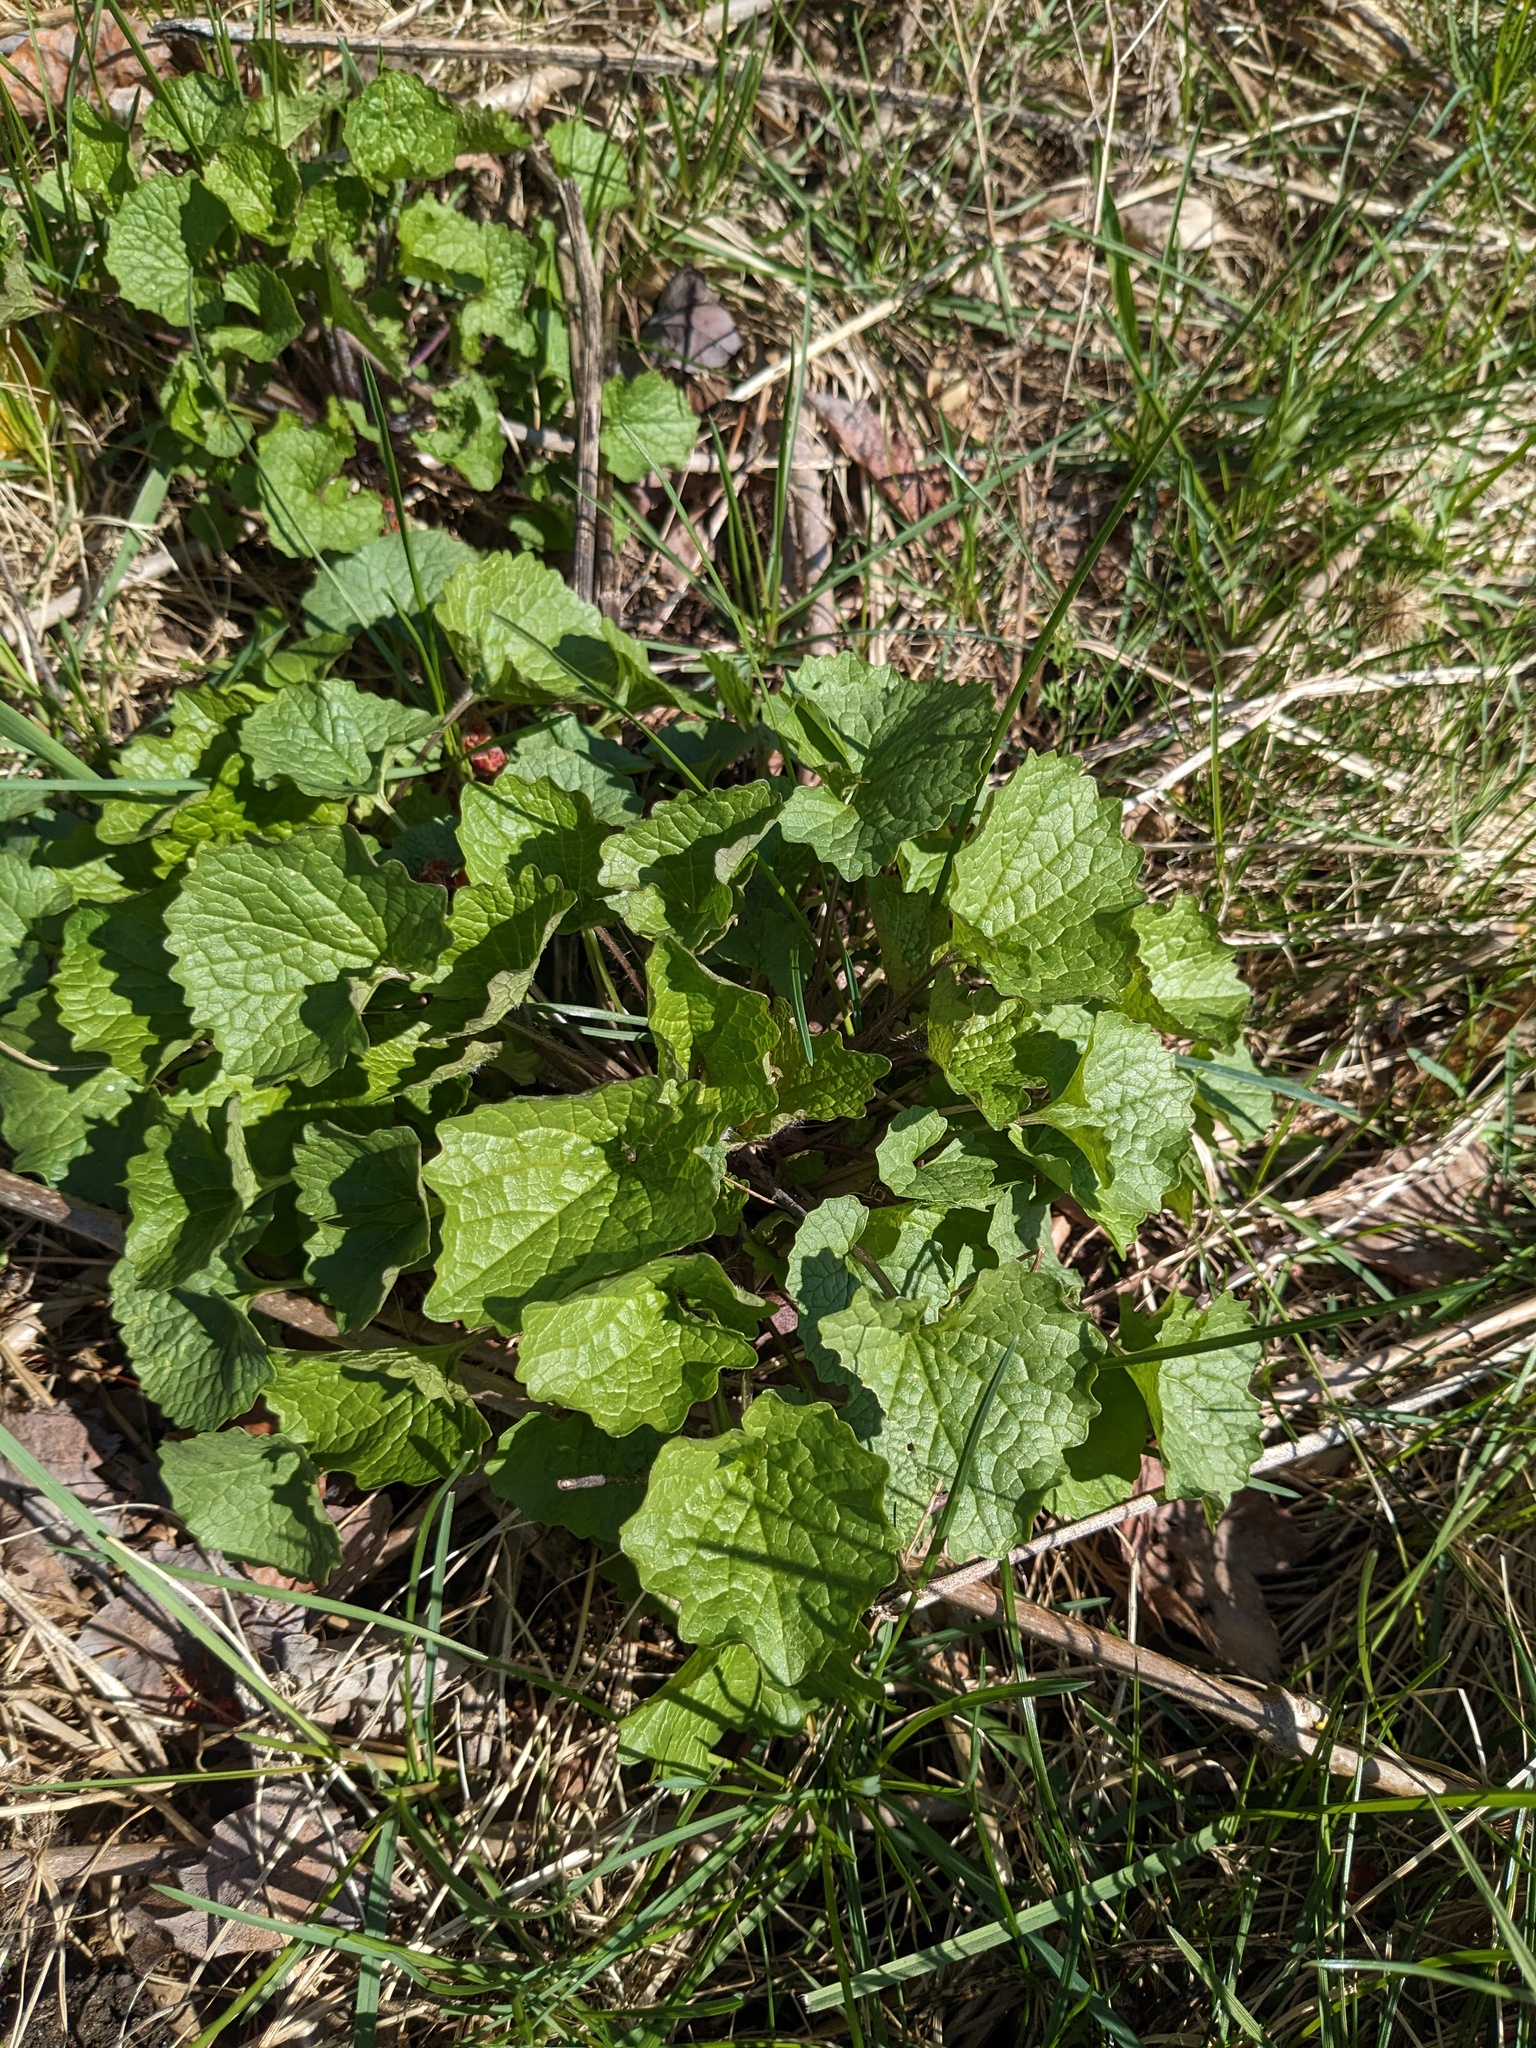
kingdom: Plantae
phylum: Tracheophyta
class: Magnoliopsida
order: Brassicales
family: Brassicaceae
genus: Alliaria
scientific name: Alliaria petiolata
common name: Garlic mustard
